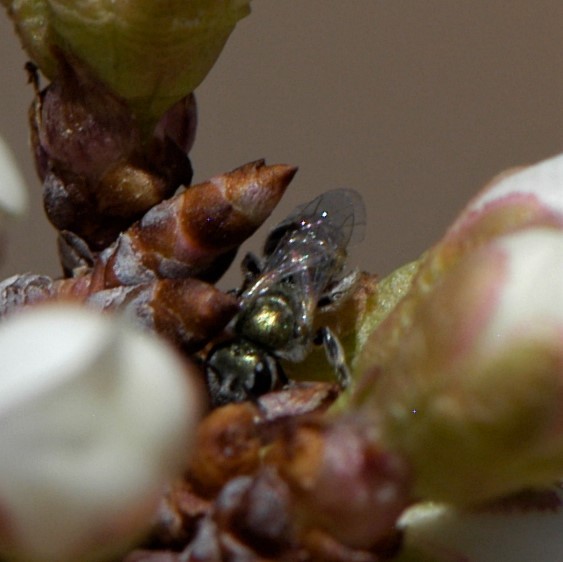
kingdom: Animalia
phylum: Arthropoda
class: Insecta
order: Hymenoptera
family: Halictidae
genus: Dialictus
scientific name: Dialictus
